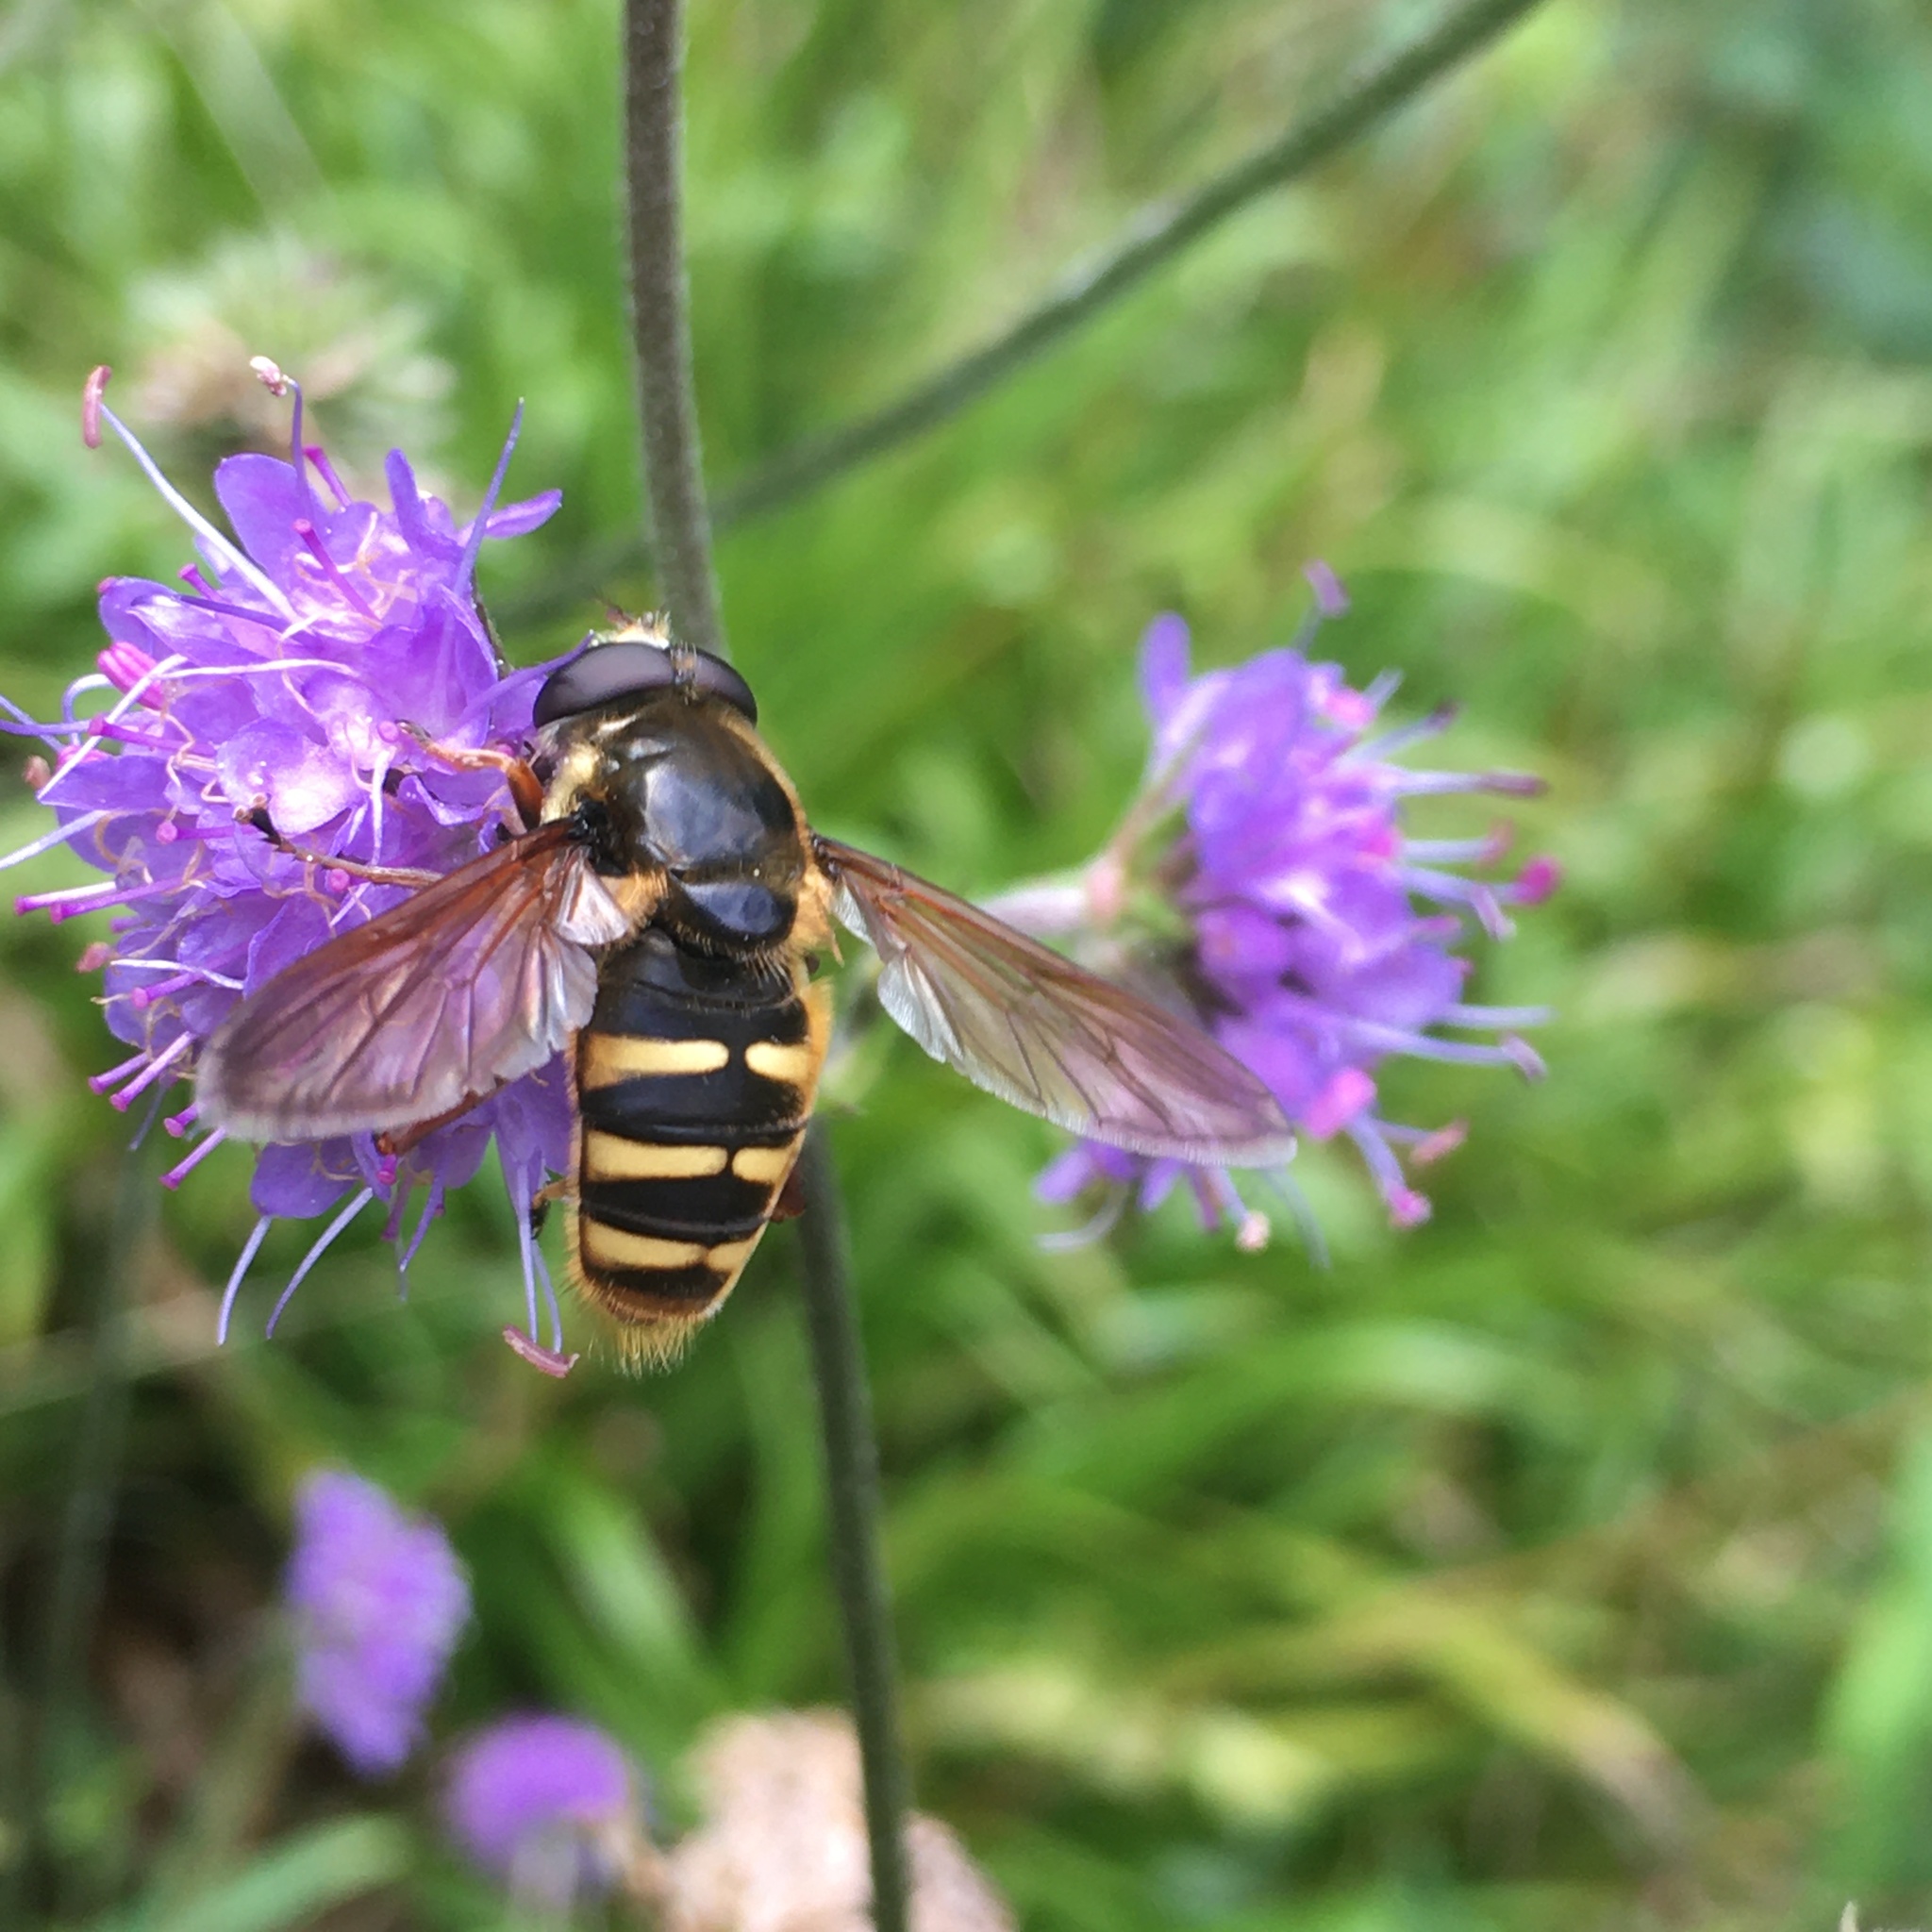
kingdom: Animalia
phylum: Arthropoda
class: Insecta
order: Diptera
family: Syrphidae
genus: Sericomyia
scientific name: Sericomyia silentis
